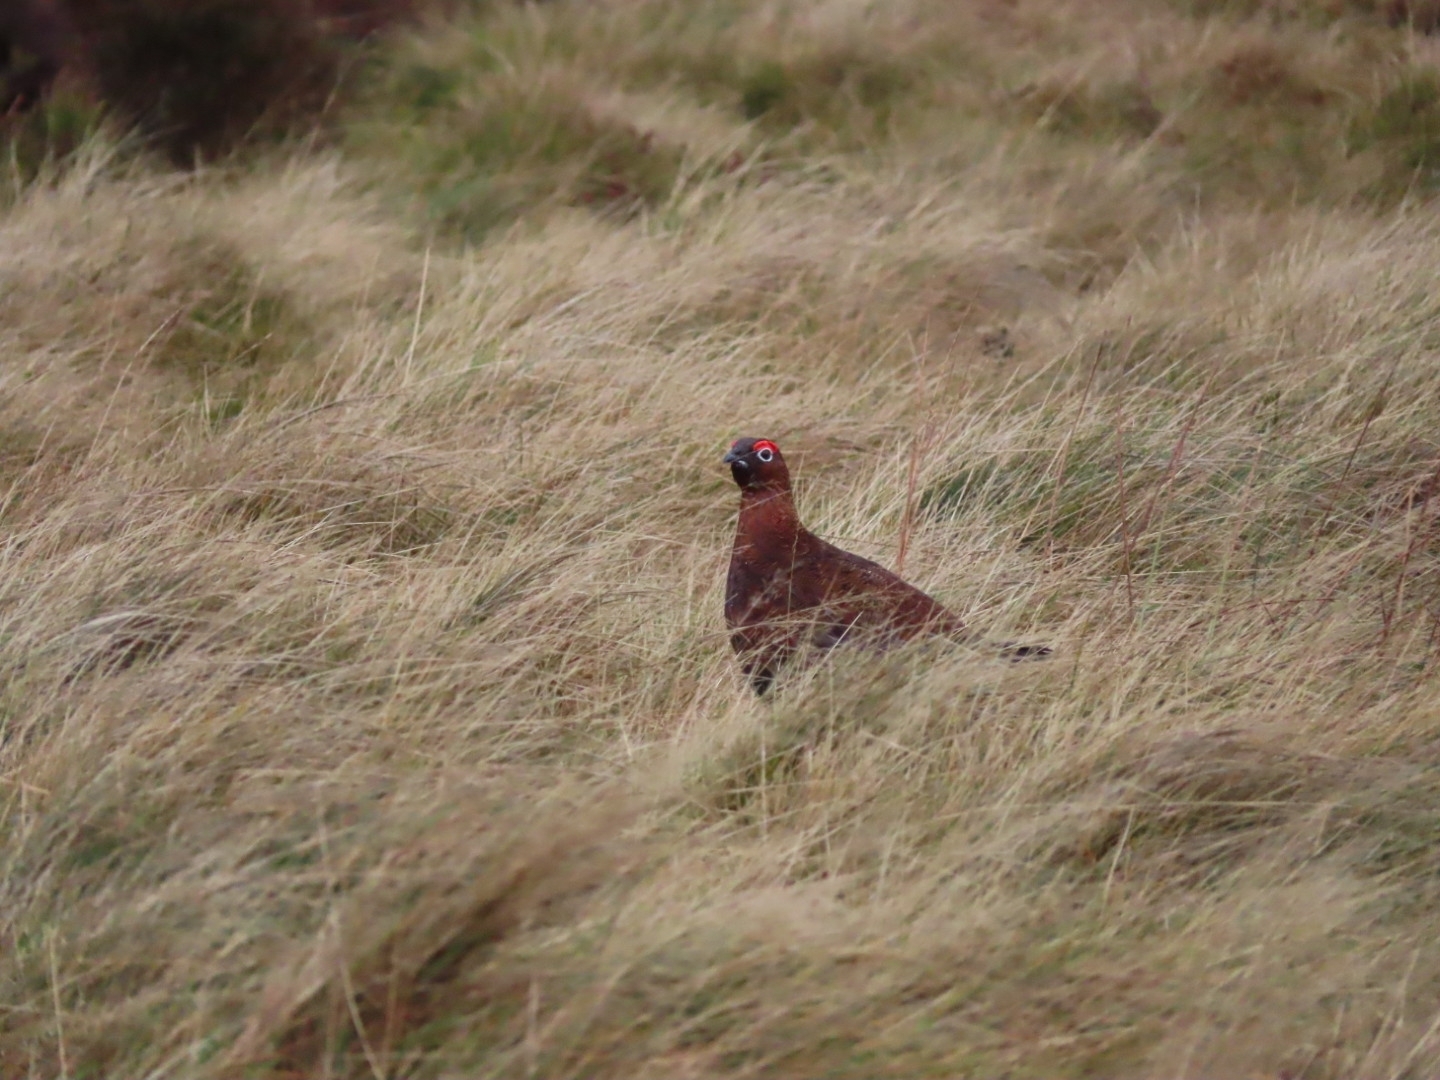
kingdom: Animalia
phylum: Chordata
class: Aves
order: Galliformes
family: Phasianidae
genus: Lagopus
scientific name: Lagopus lagopus
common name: Willow ptarmigan
